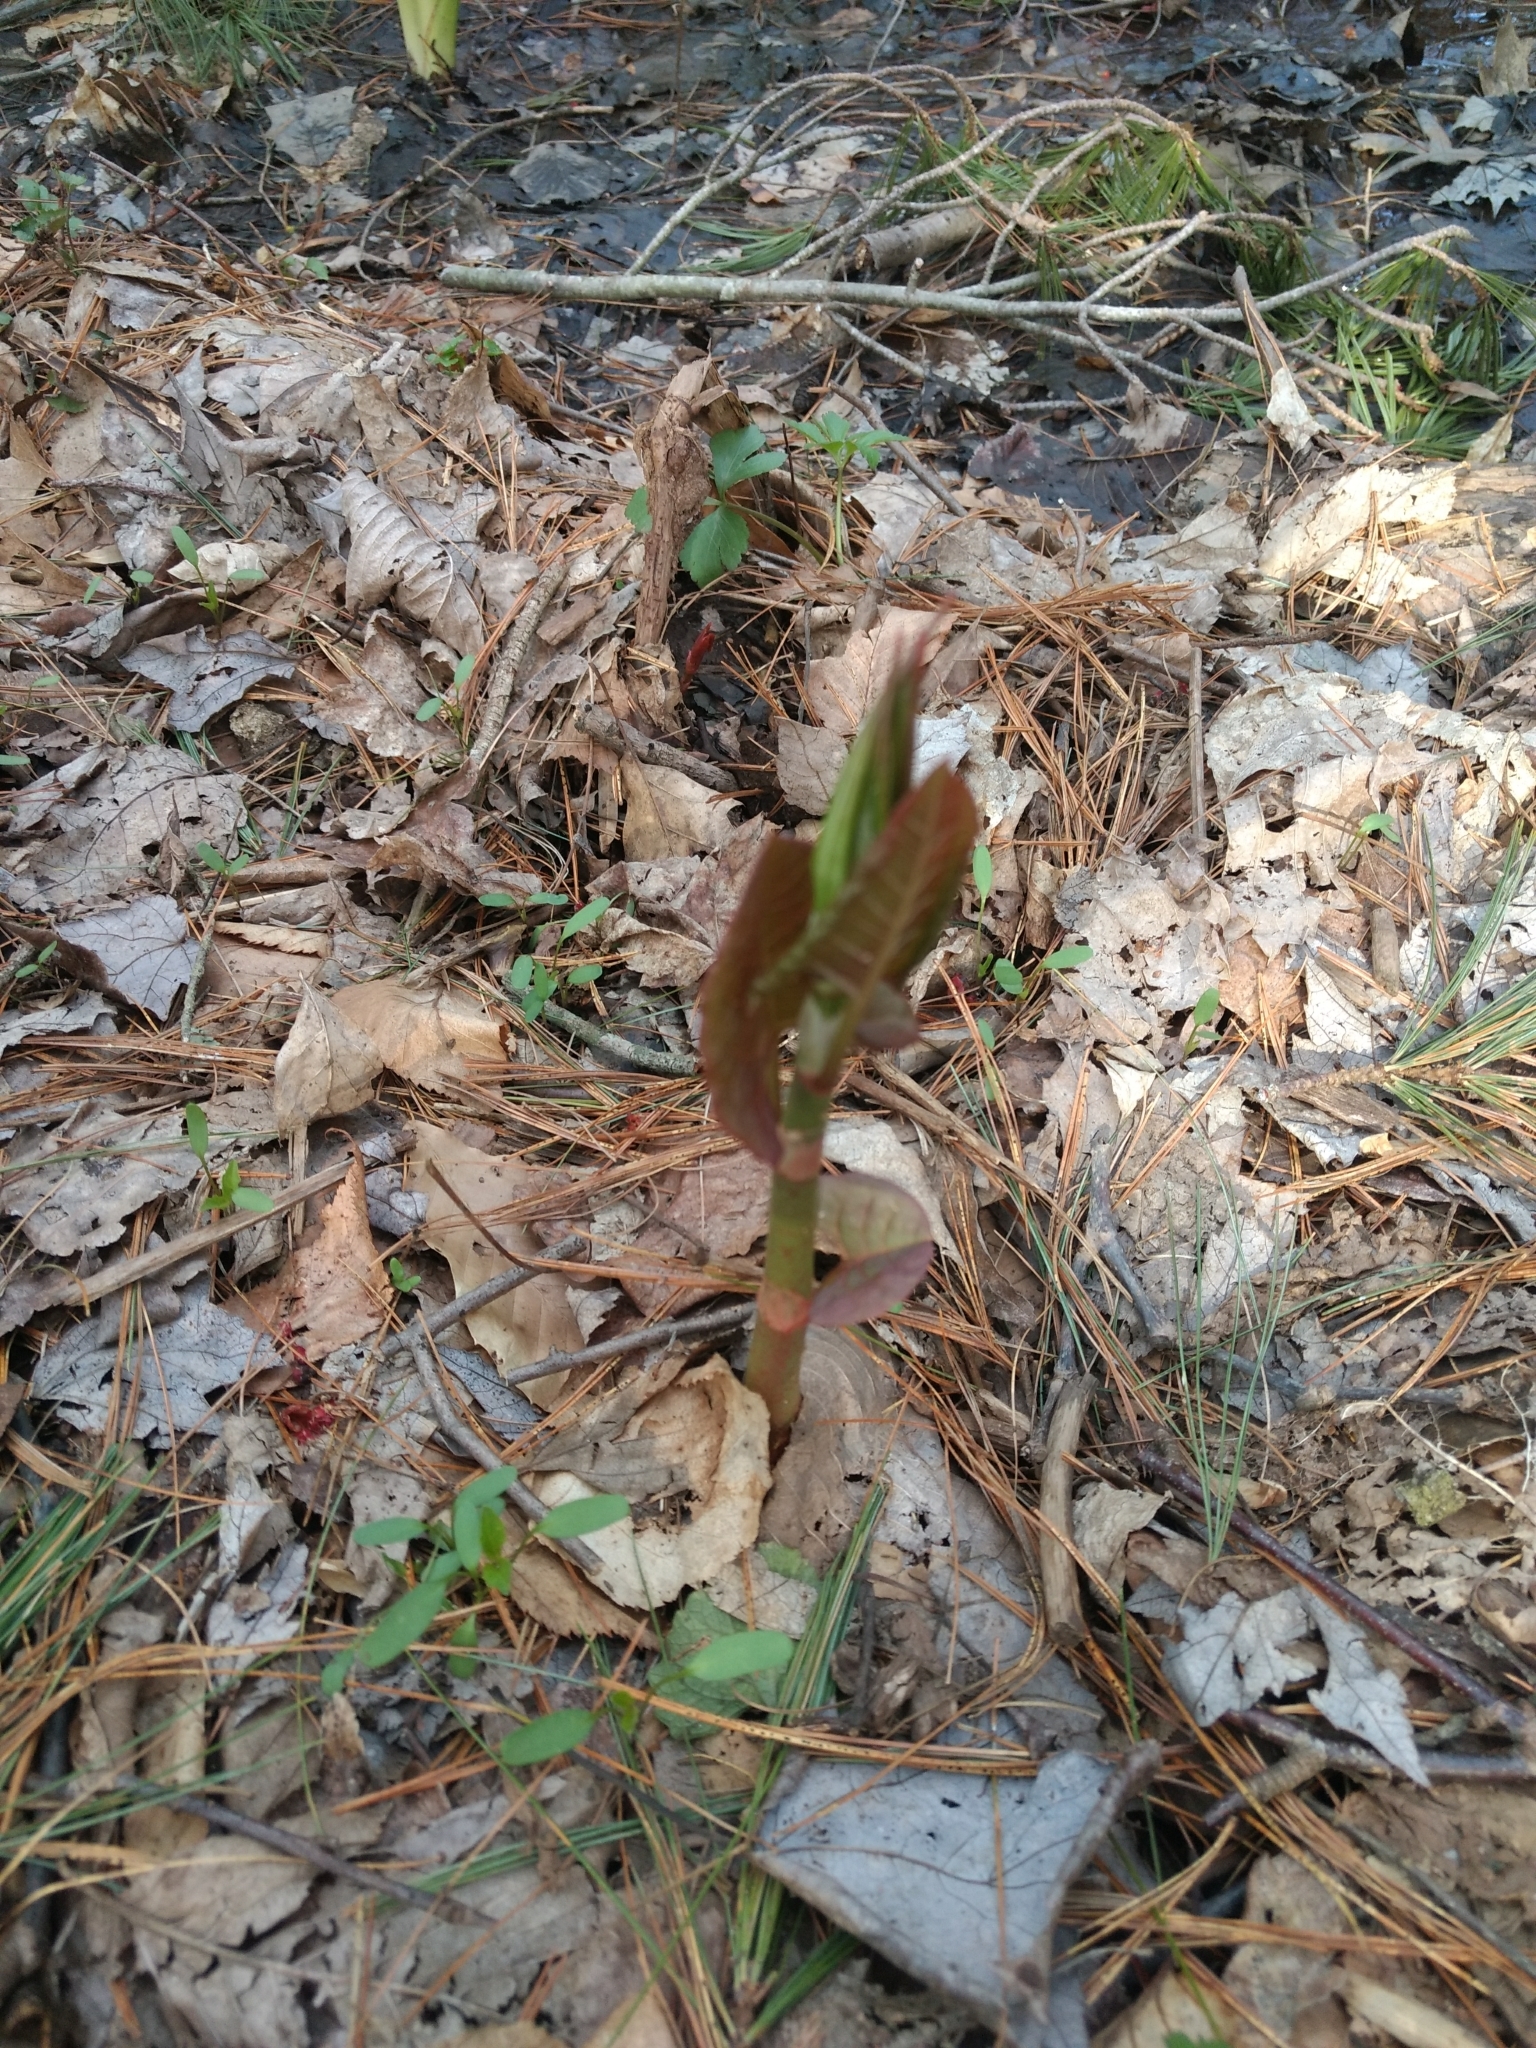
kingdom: Plantae
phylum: Tracheophyta
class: Magnoliopsida
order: Caryophyllales
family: Polygonaceae
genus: Reynoutria
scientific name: Reynoutria japonica
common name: Japanese knotweed
